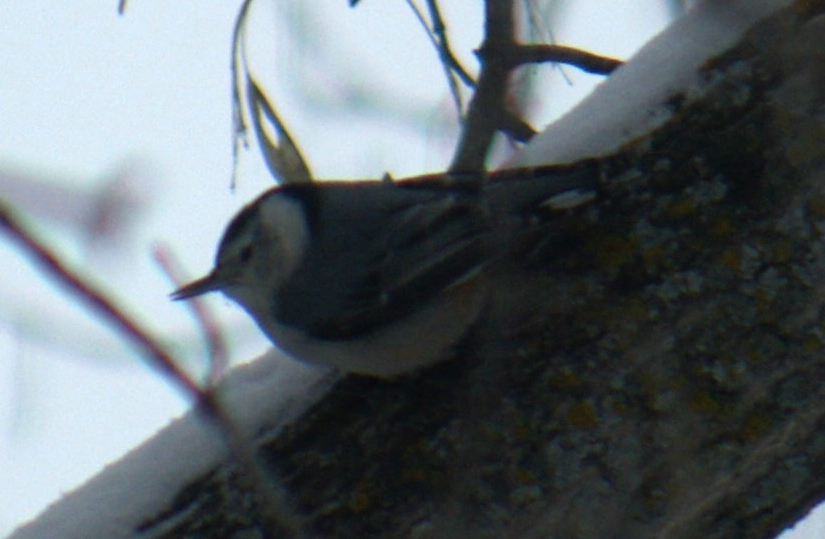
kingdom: Animalia
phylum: Chordata
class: Aves
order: Passeriformes
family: Sittidae
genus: Sitta
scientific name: Sitta carolinensis
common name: White-breasted nuthatch
